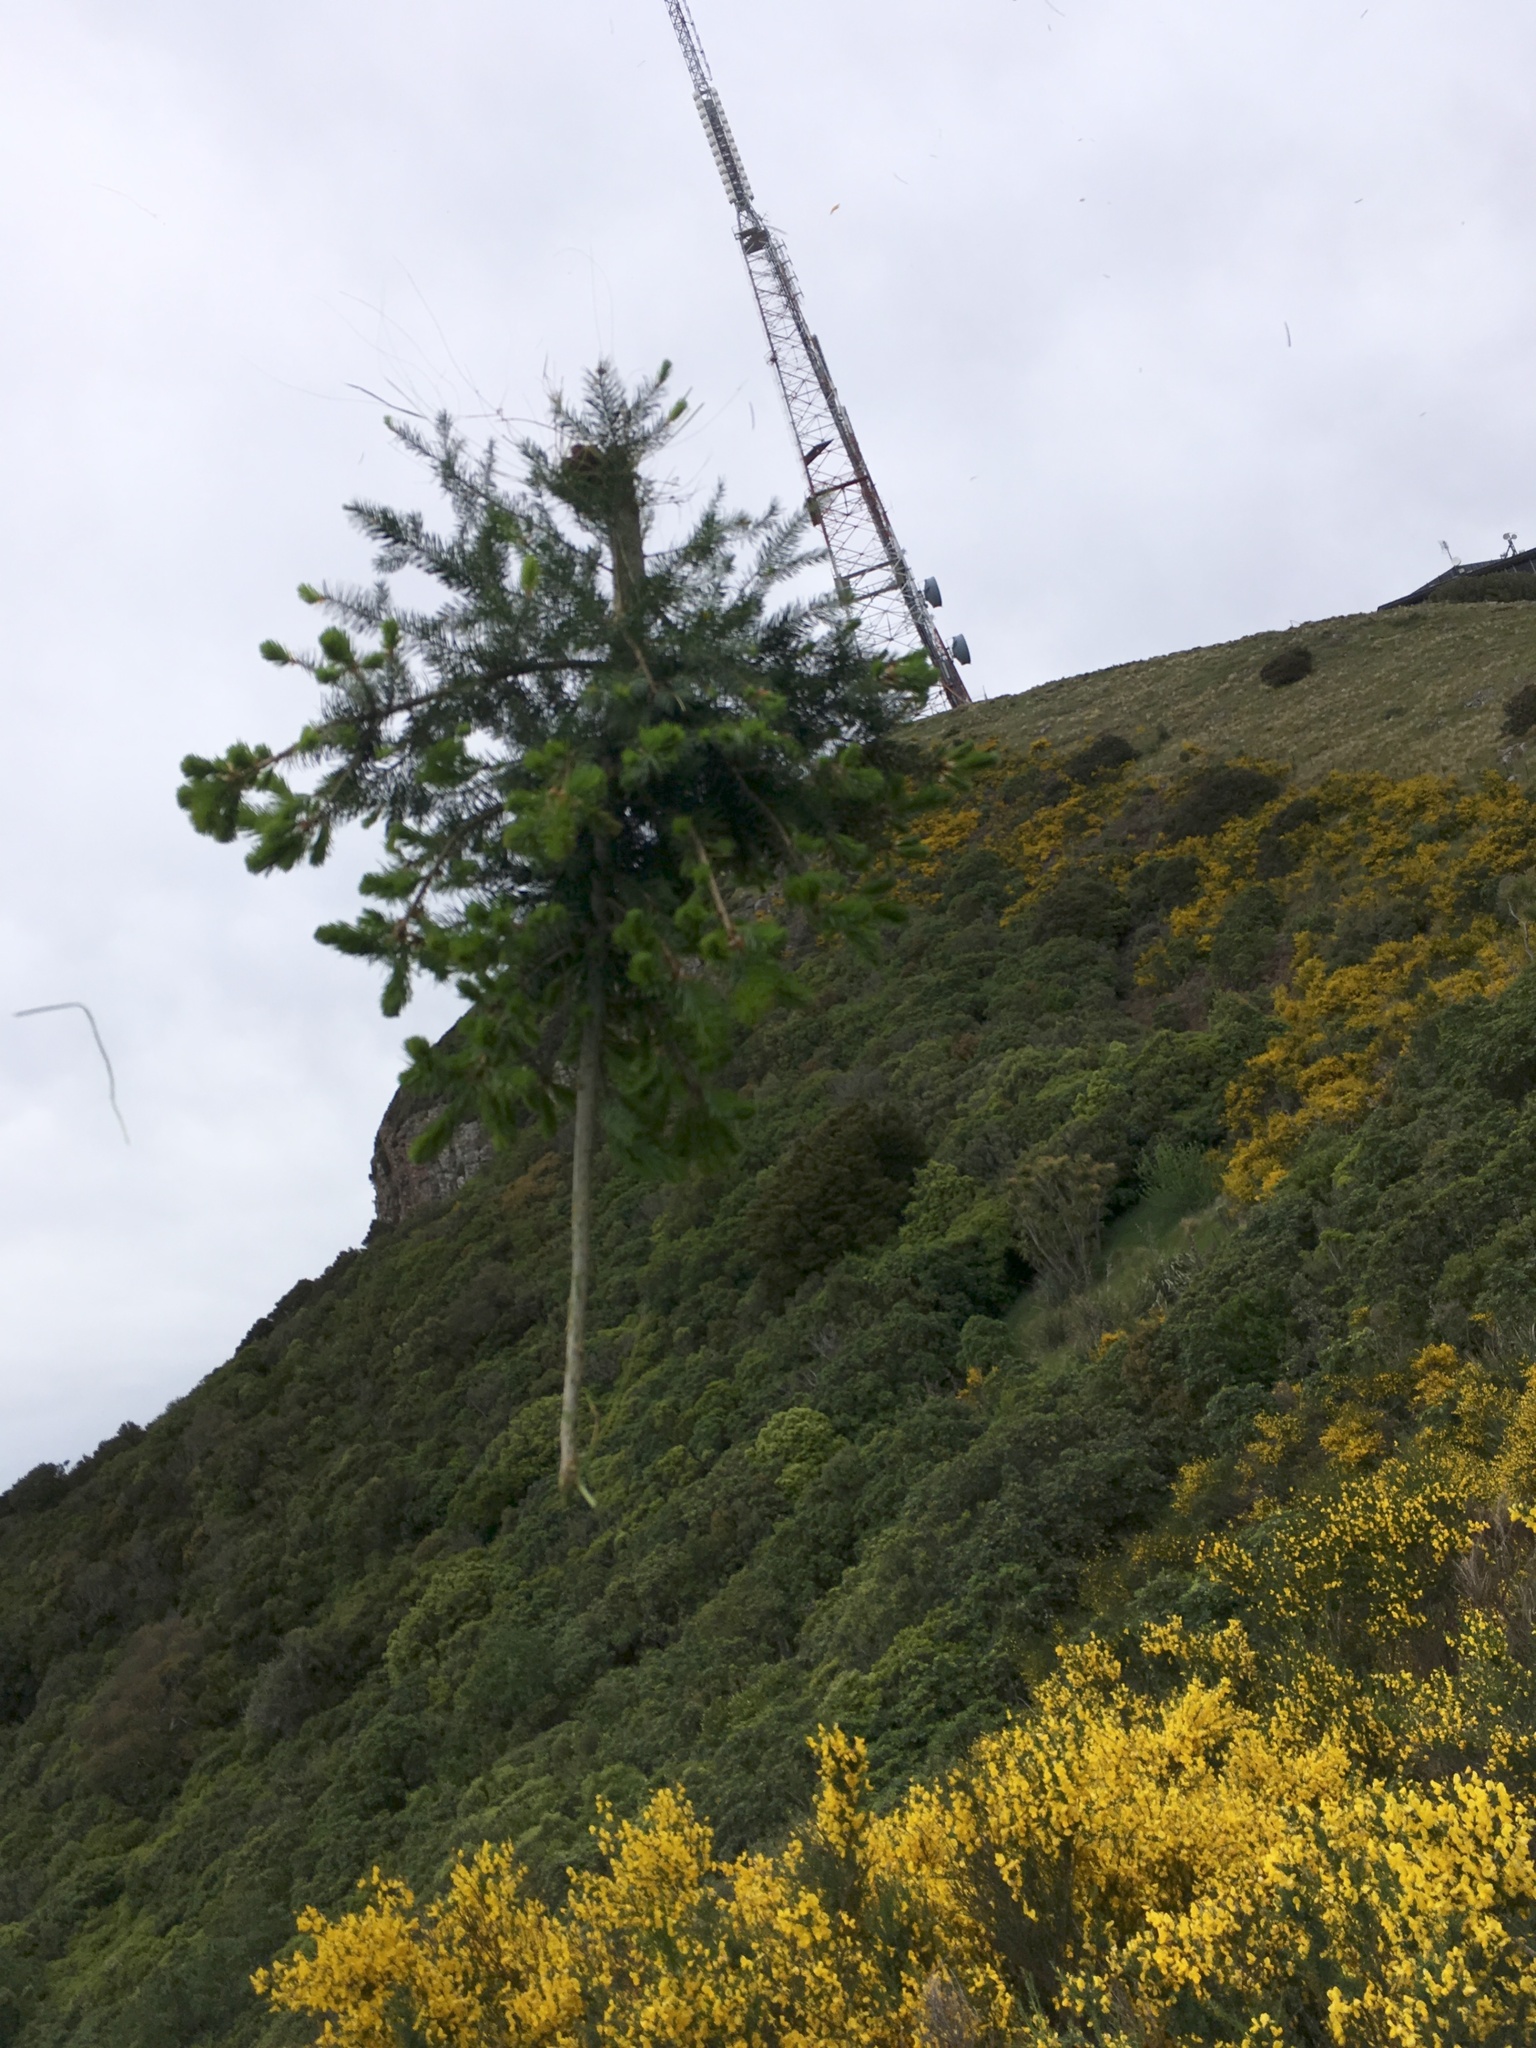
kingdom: Plantae
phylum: Tracheophyta
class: Pinopsida
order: Pinales
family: Pinaceae
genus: Pseudotsuga
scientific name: Pseudotsuga menziesii
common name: Douglas fir
